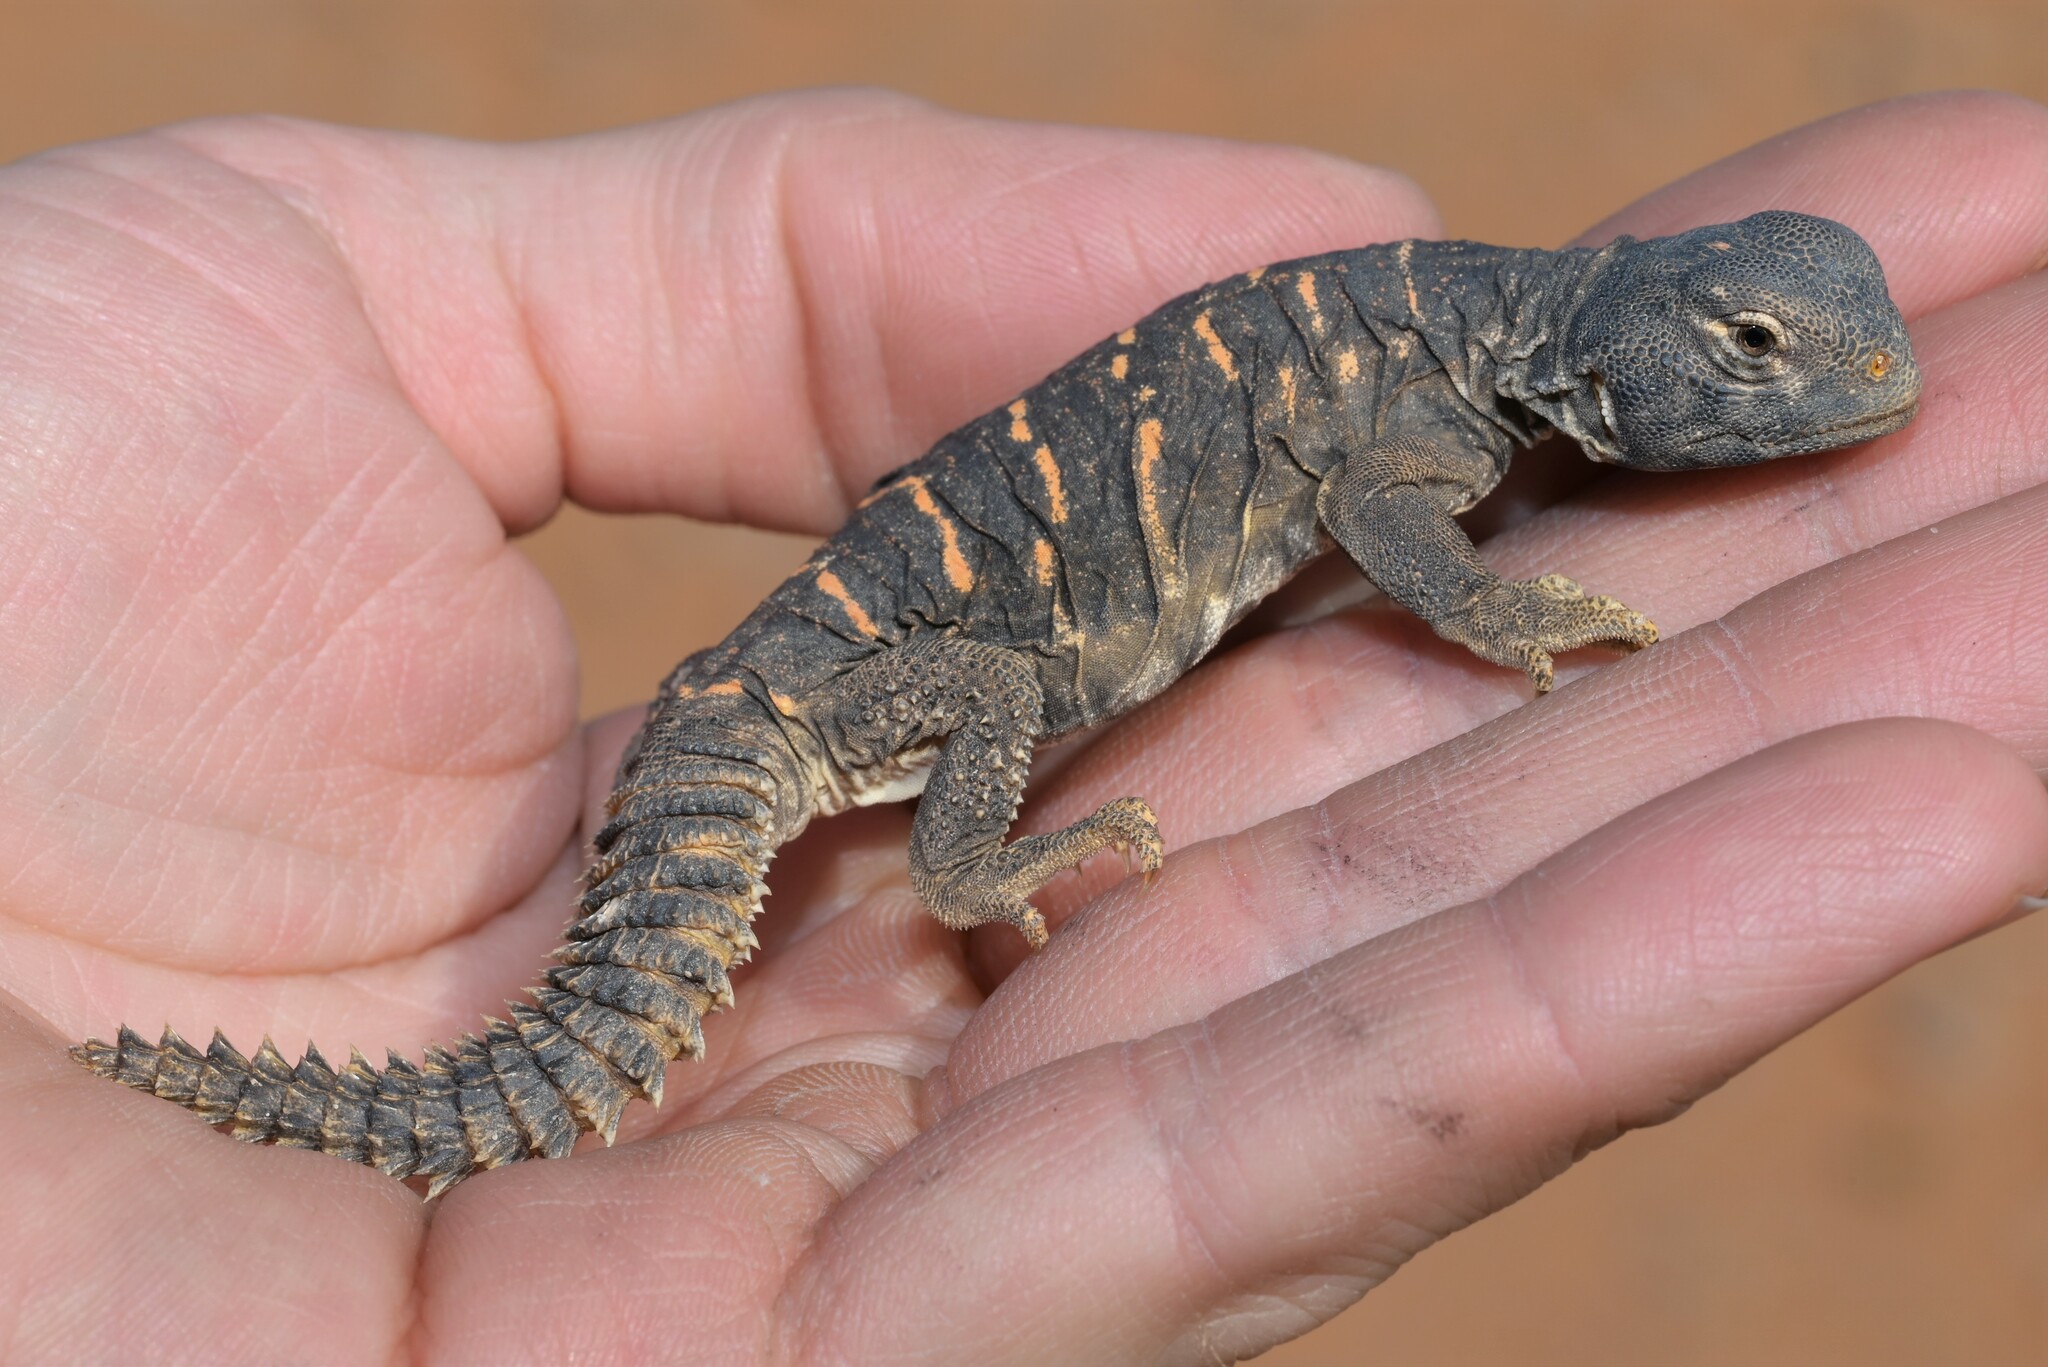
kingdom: Animalia
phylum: Chordata
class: Squamata
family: Agamidae
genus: Uromastyx
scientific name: Uromastyx aegyptia
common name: Egyptian mastigure
